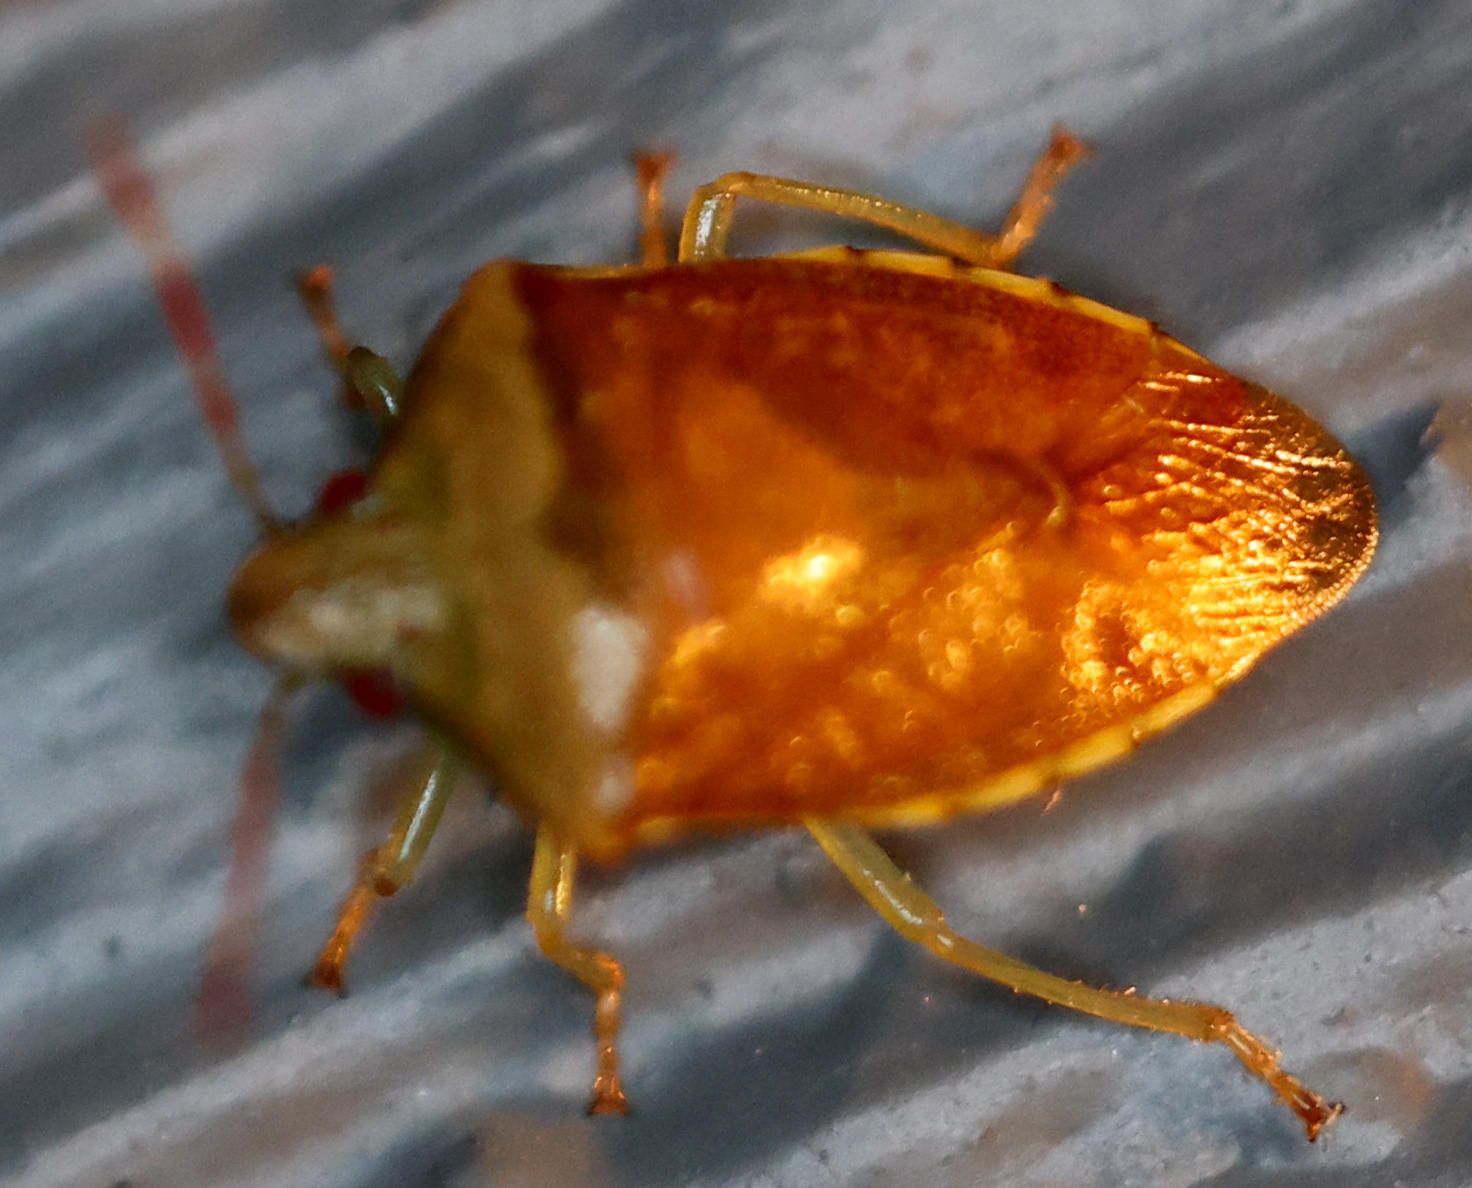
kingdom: Animalia
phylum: Arthropoda
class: Insecta
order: Hemiptera
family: Pentatomidae
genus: Banasa
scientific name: Banasa calva
